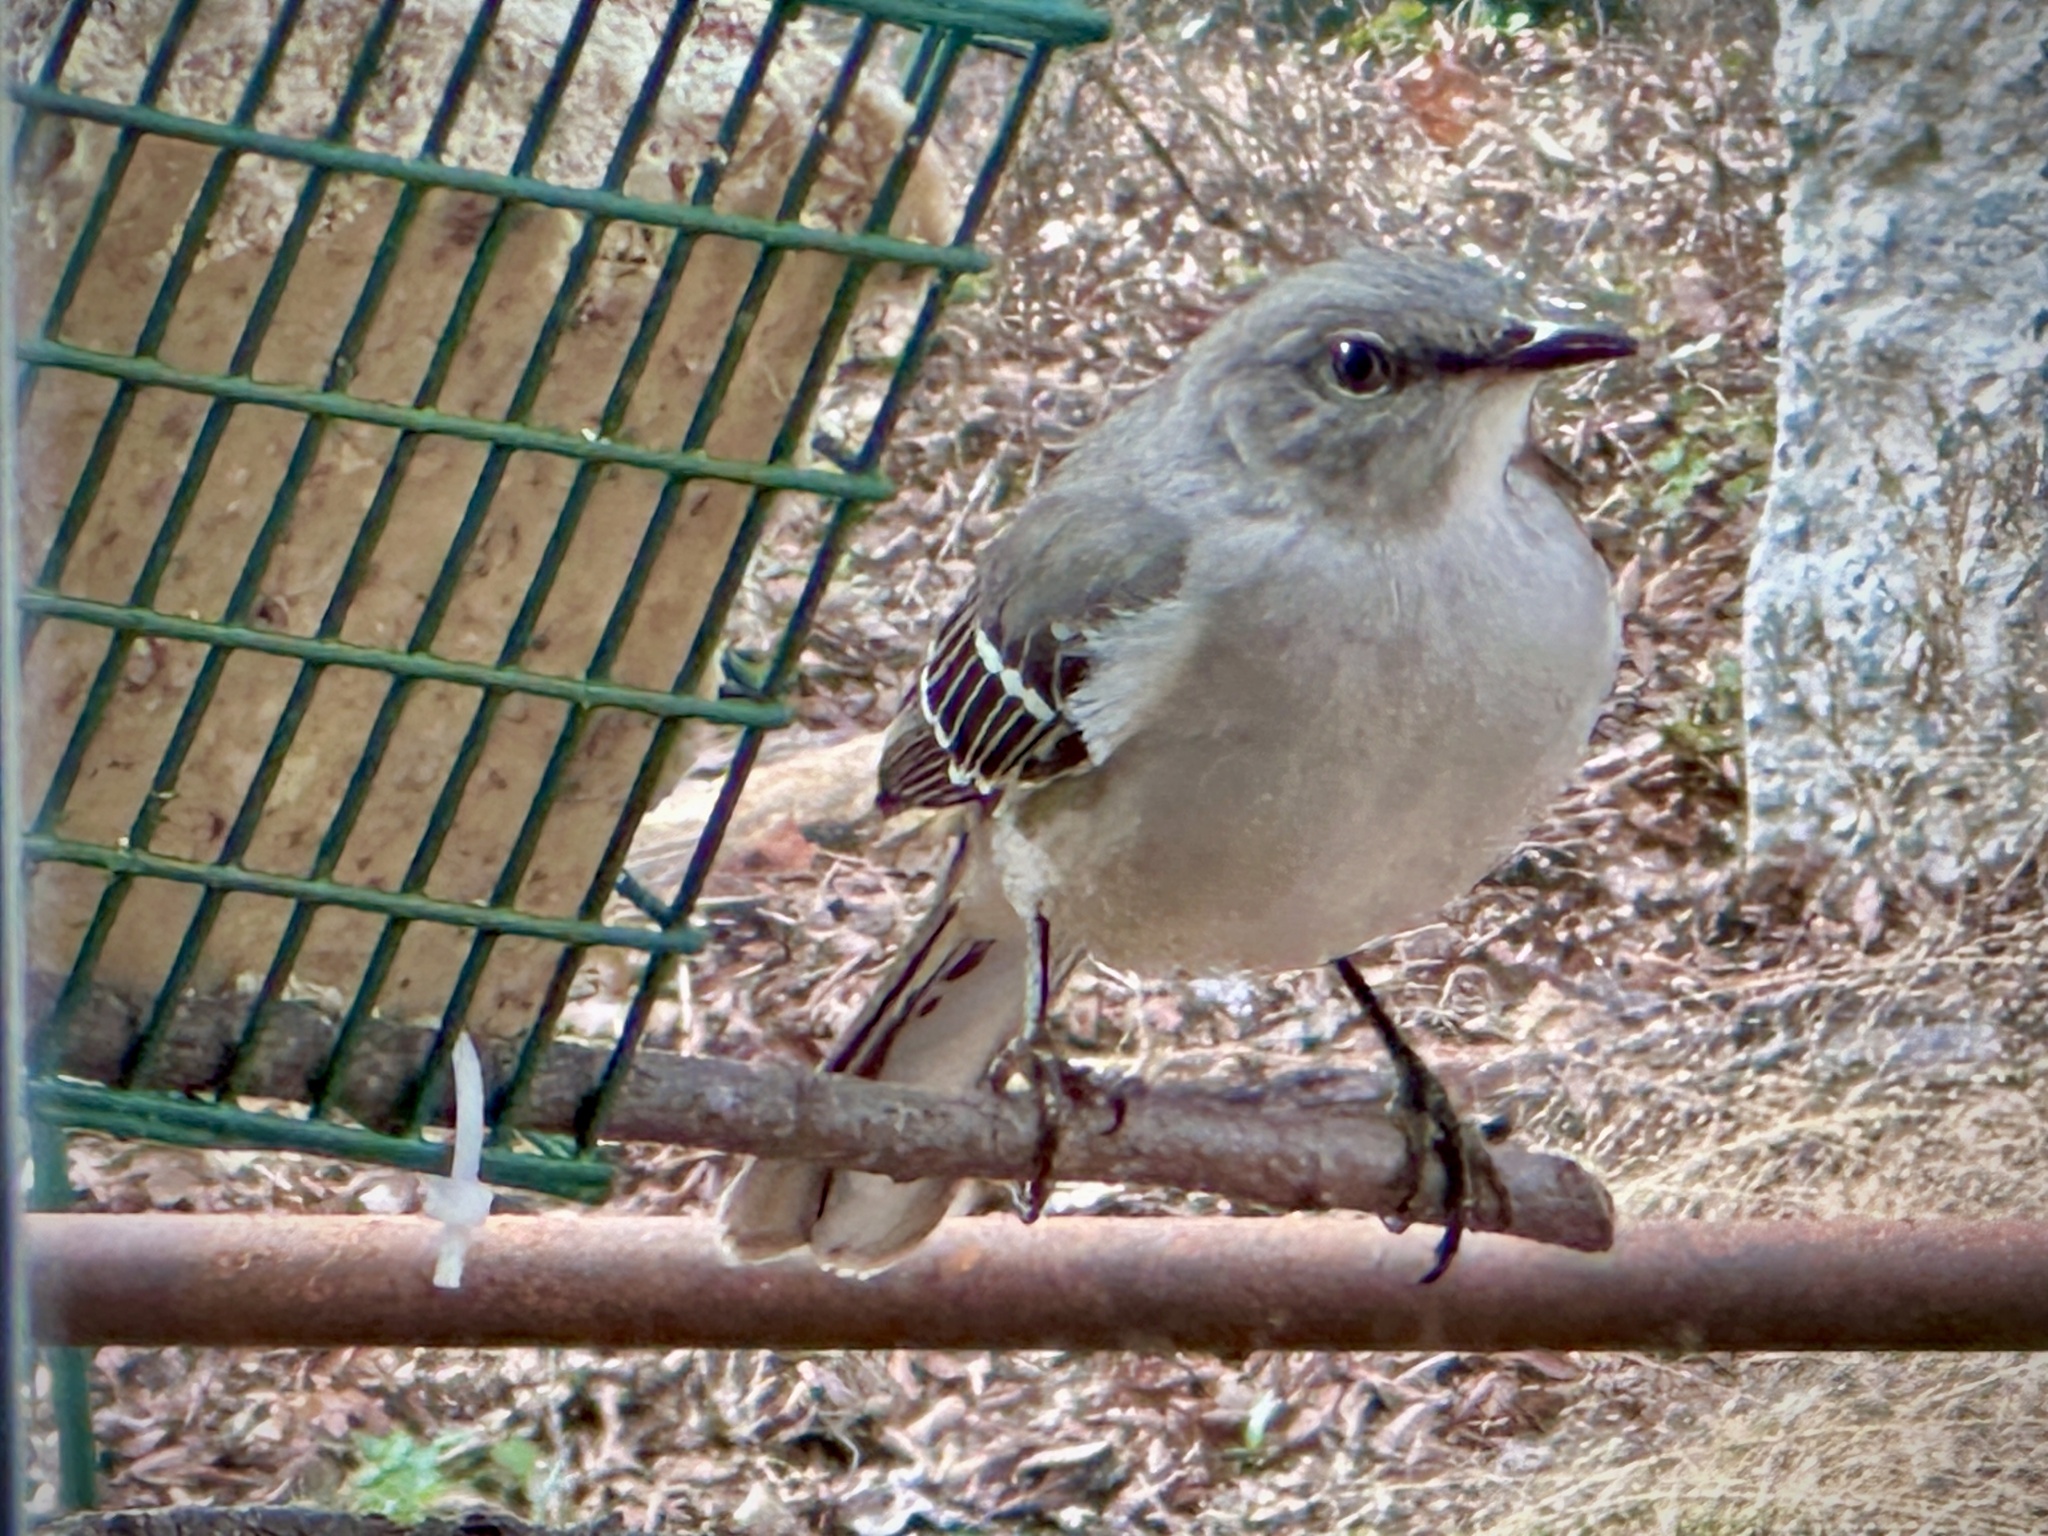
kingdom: Animalia
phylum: Chordata
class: Aves
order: Passeriformes
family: Mimidae
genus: Mimus
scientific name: Mimus polyglottos
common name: Northern mockingbird
